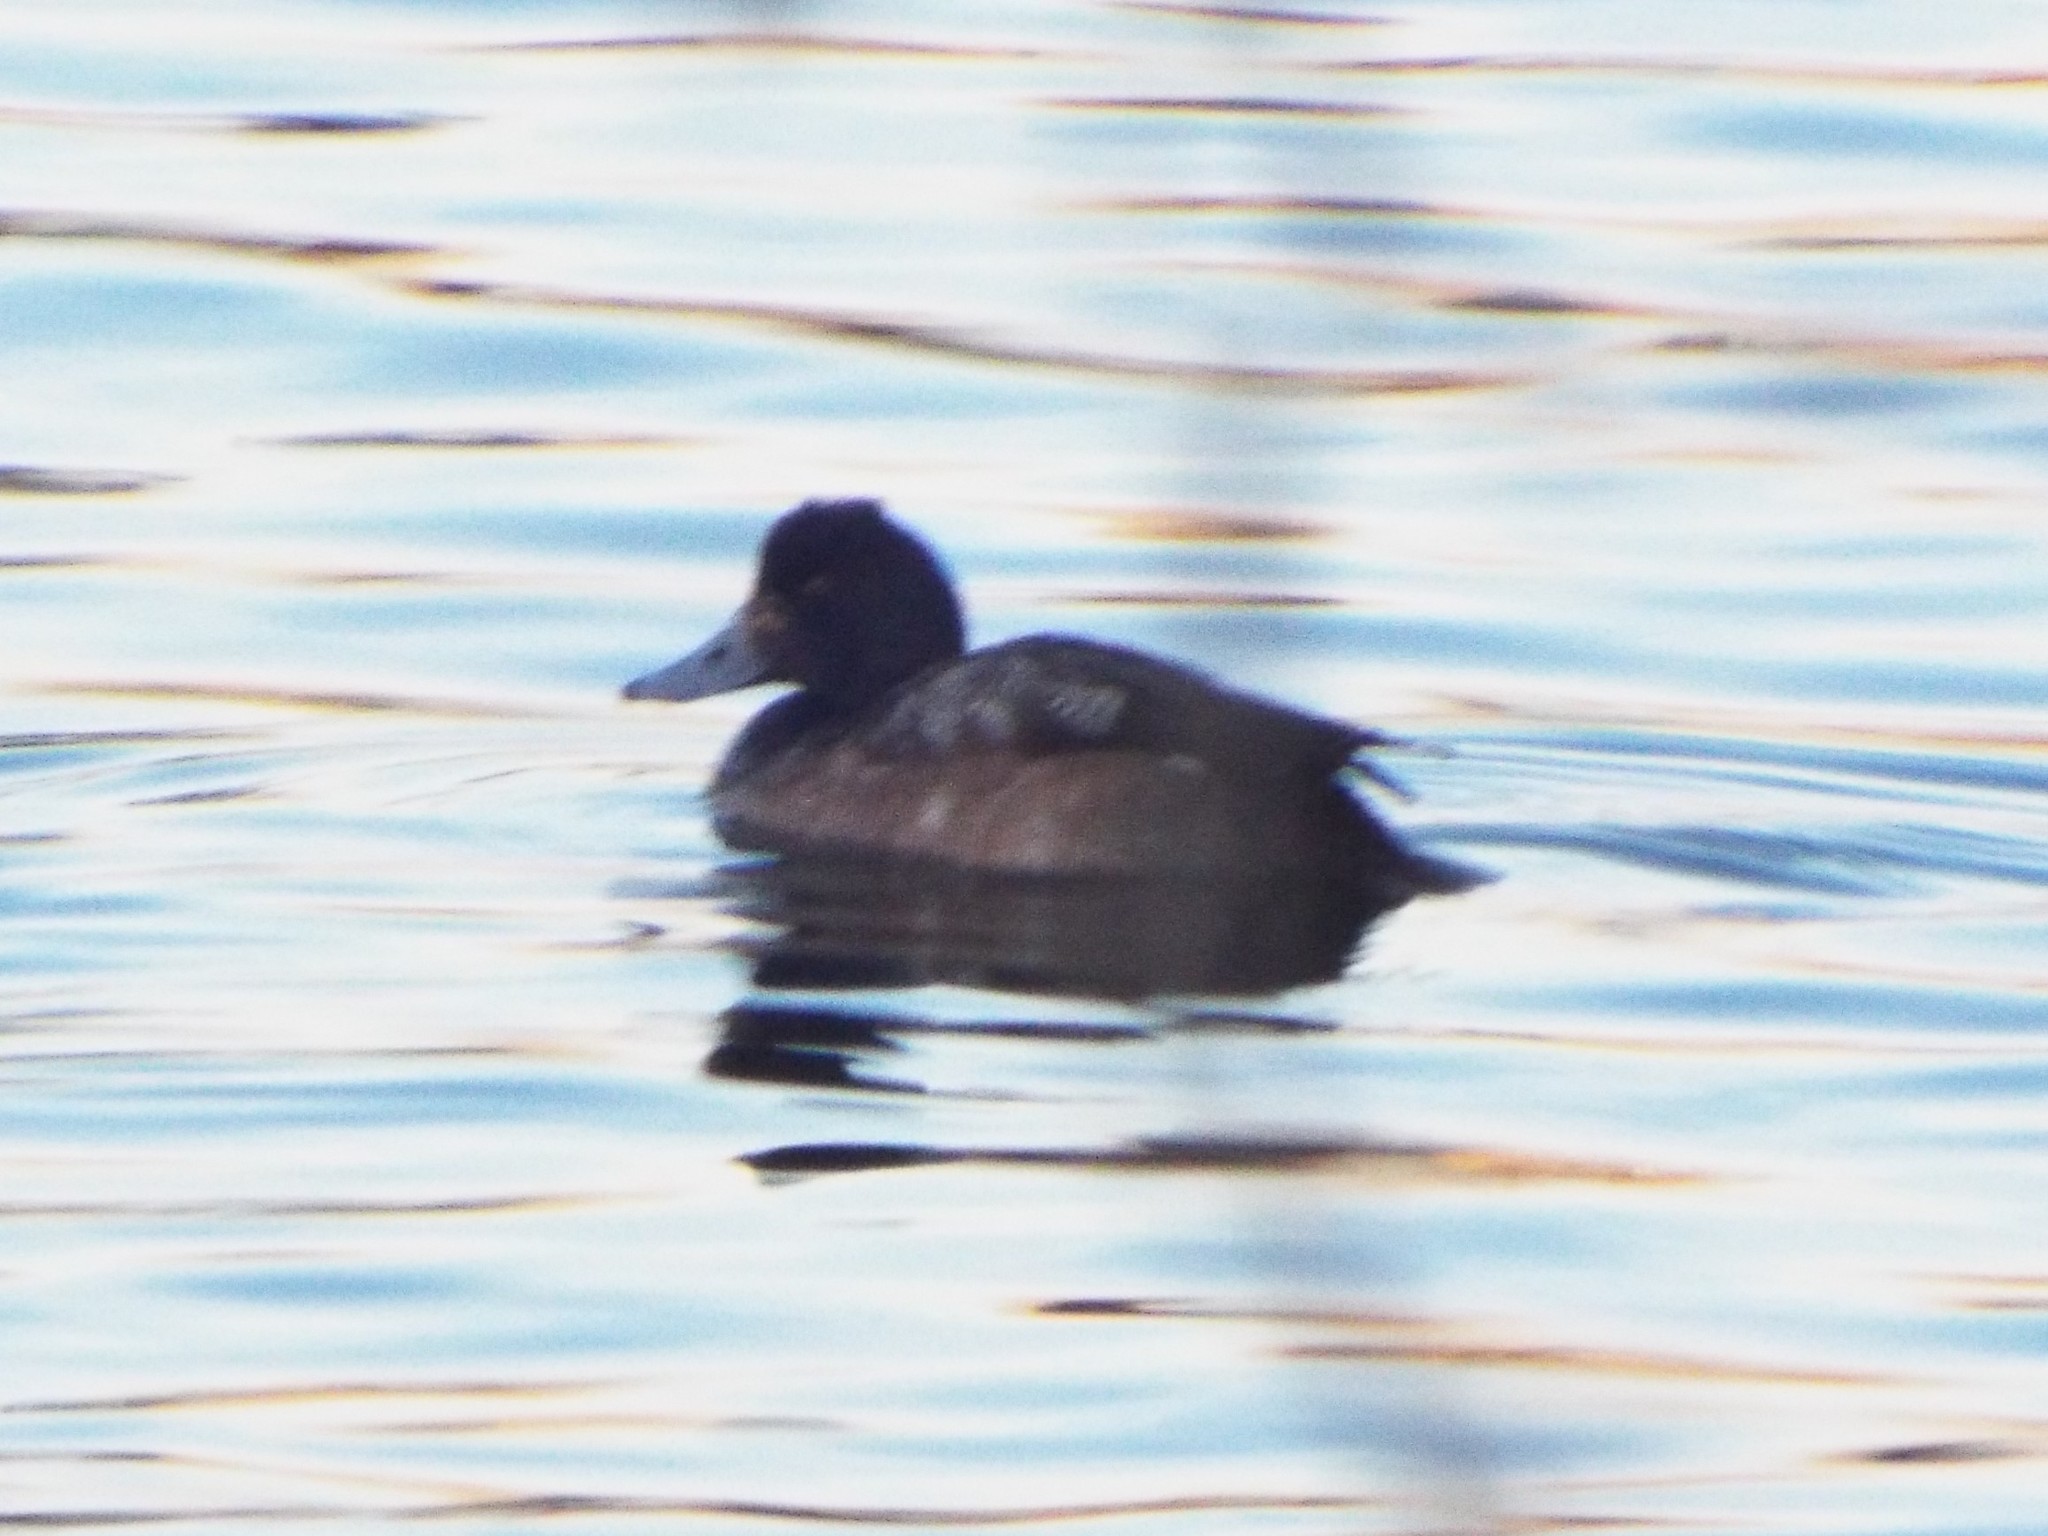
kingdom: Animalia
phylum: Chordata
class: Aves
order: Anseriformes
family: Anatidae
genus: Aythya
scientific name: Aythya affinis
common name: Lesser scaup
